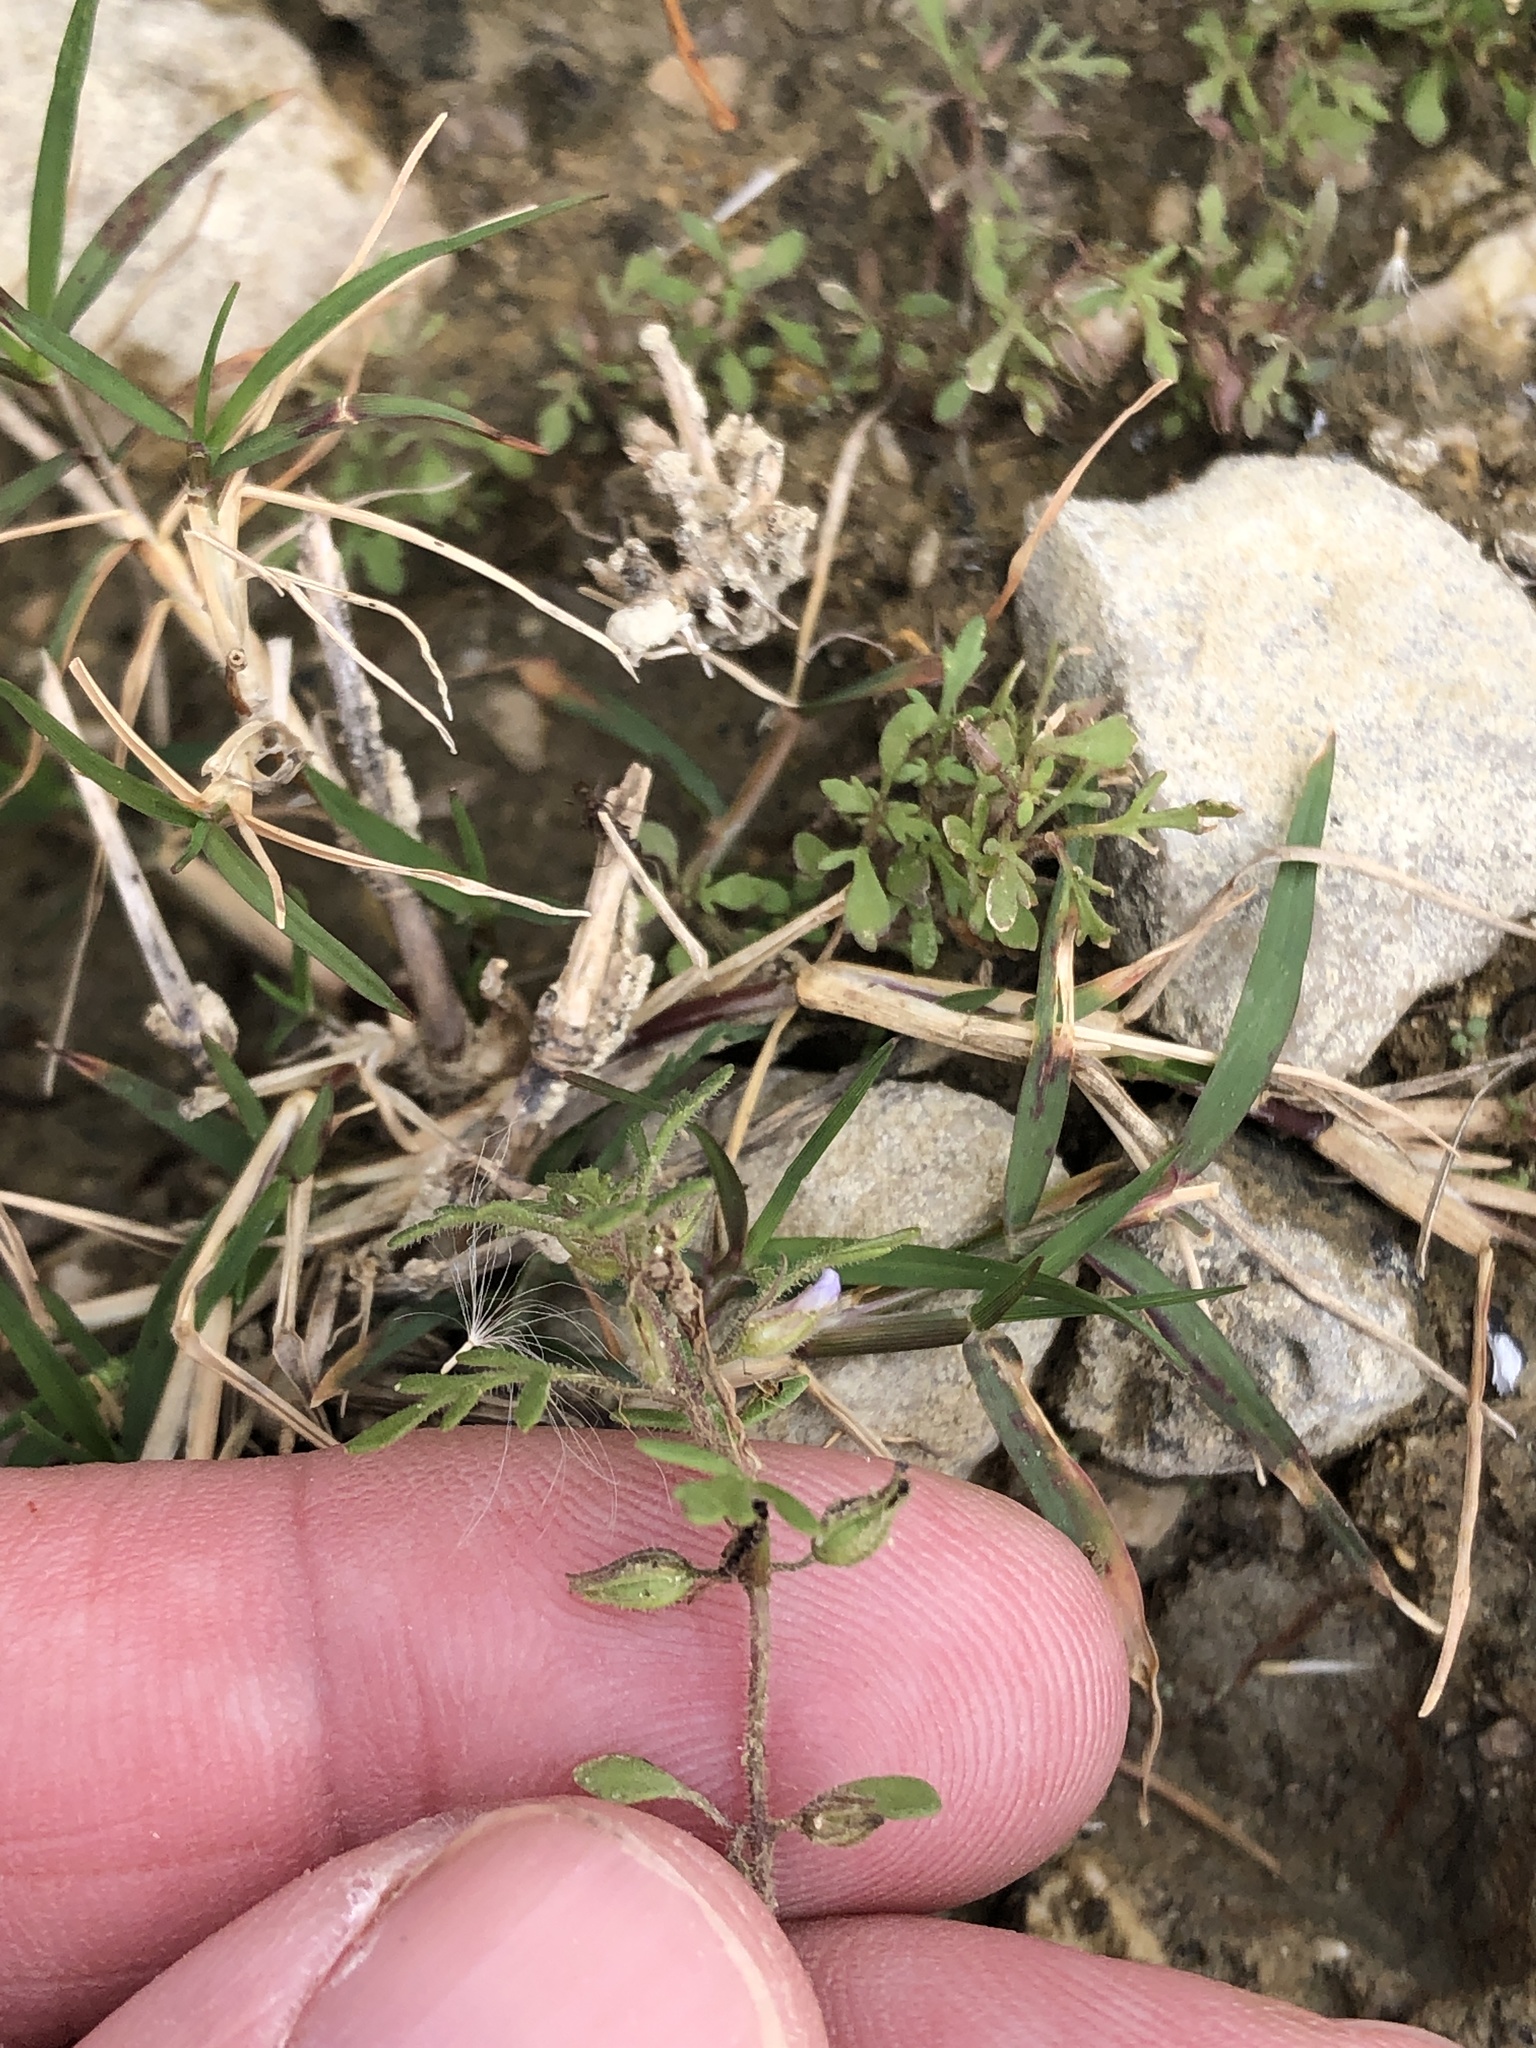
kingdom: Plantae
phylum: Tracheophyta
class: Magnoliopsida
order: Lamiales
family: Plantaginaceae
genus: Leucospora
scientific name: Leucospora multifida
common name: Narrow-leaf paleseed
